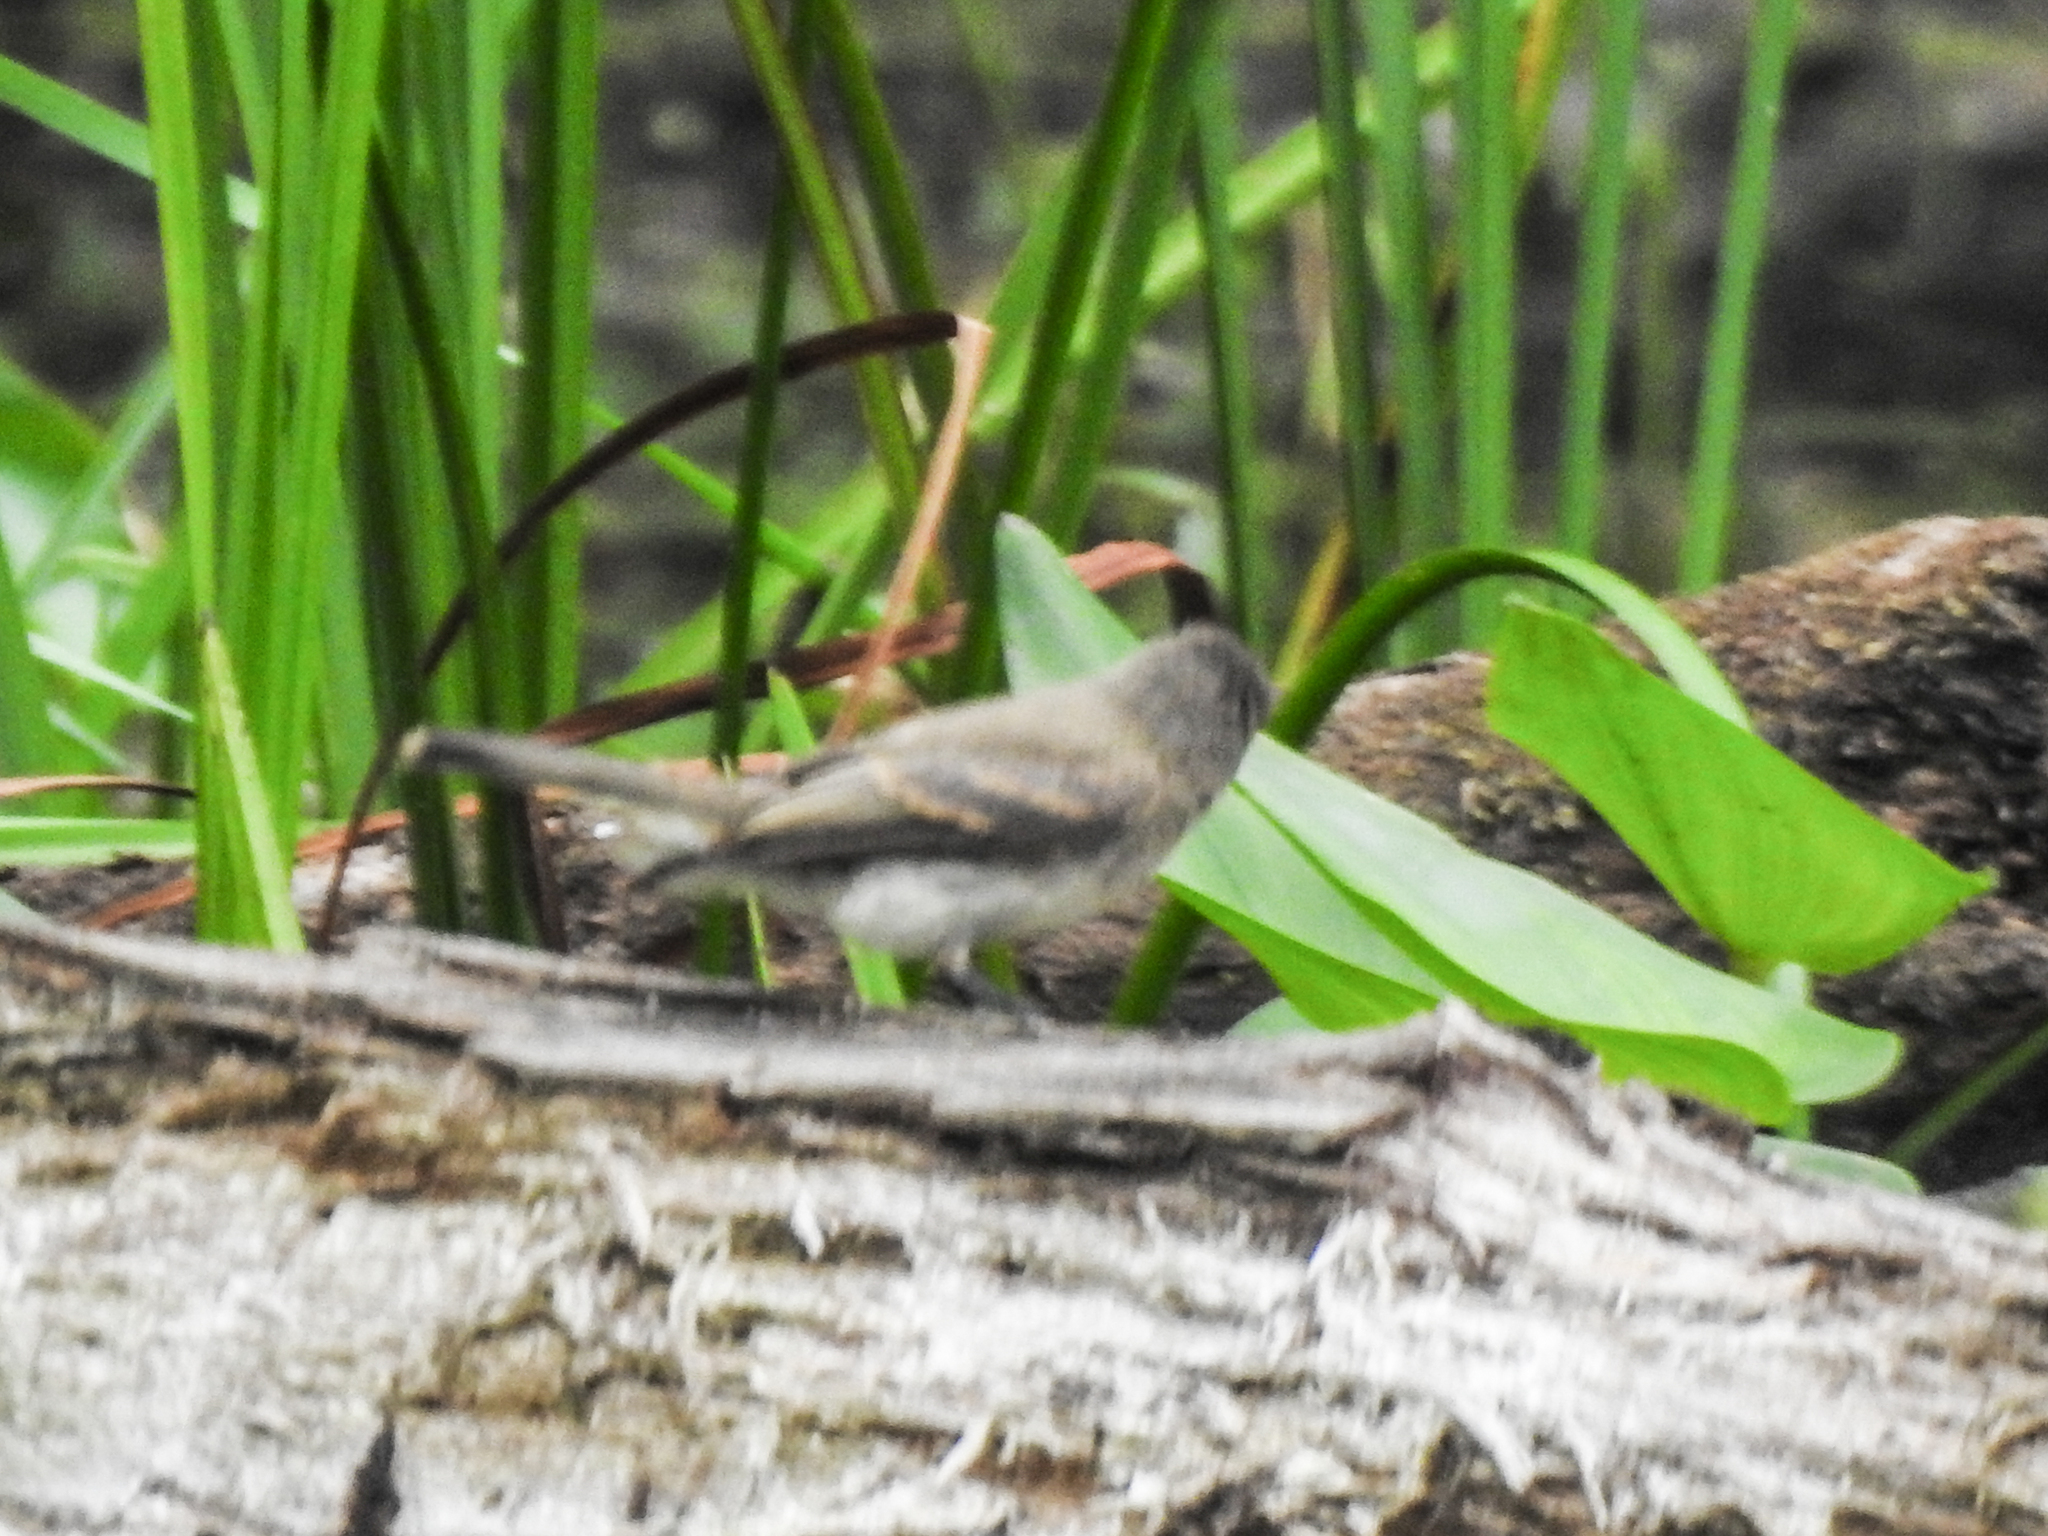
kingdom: Animalia
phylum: Chordata
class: Aves
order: Passeriformes
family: Tyrannidae
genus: Sayornis
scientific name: Sayornis phoebe
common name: Eastern phoebe
